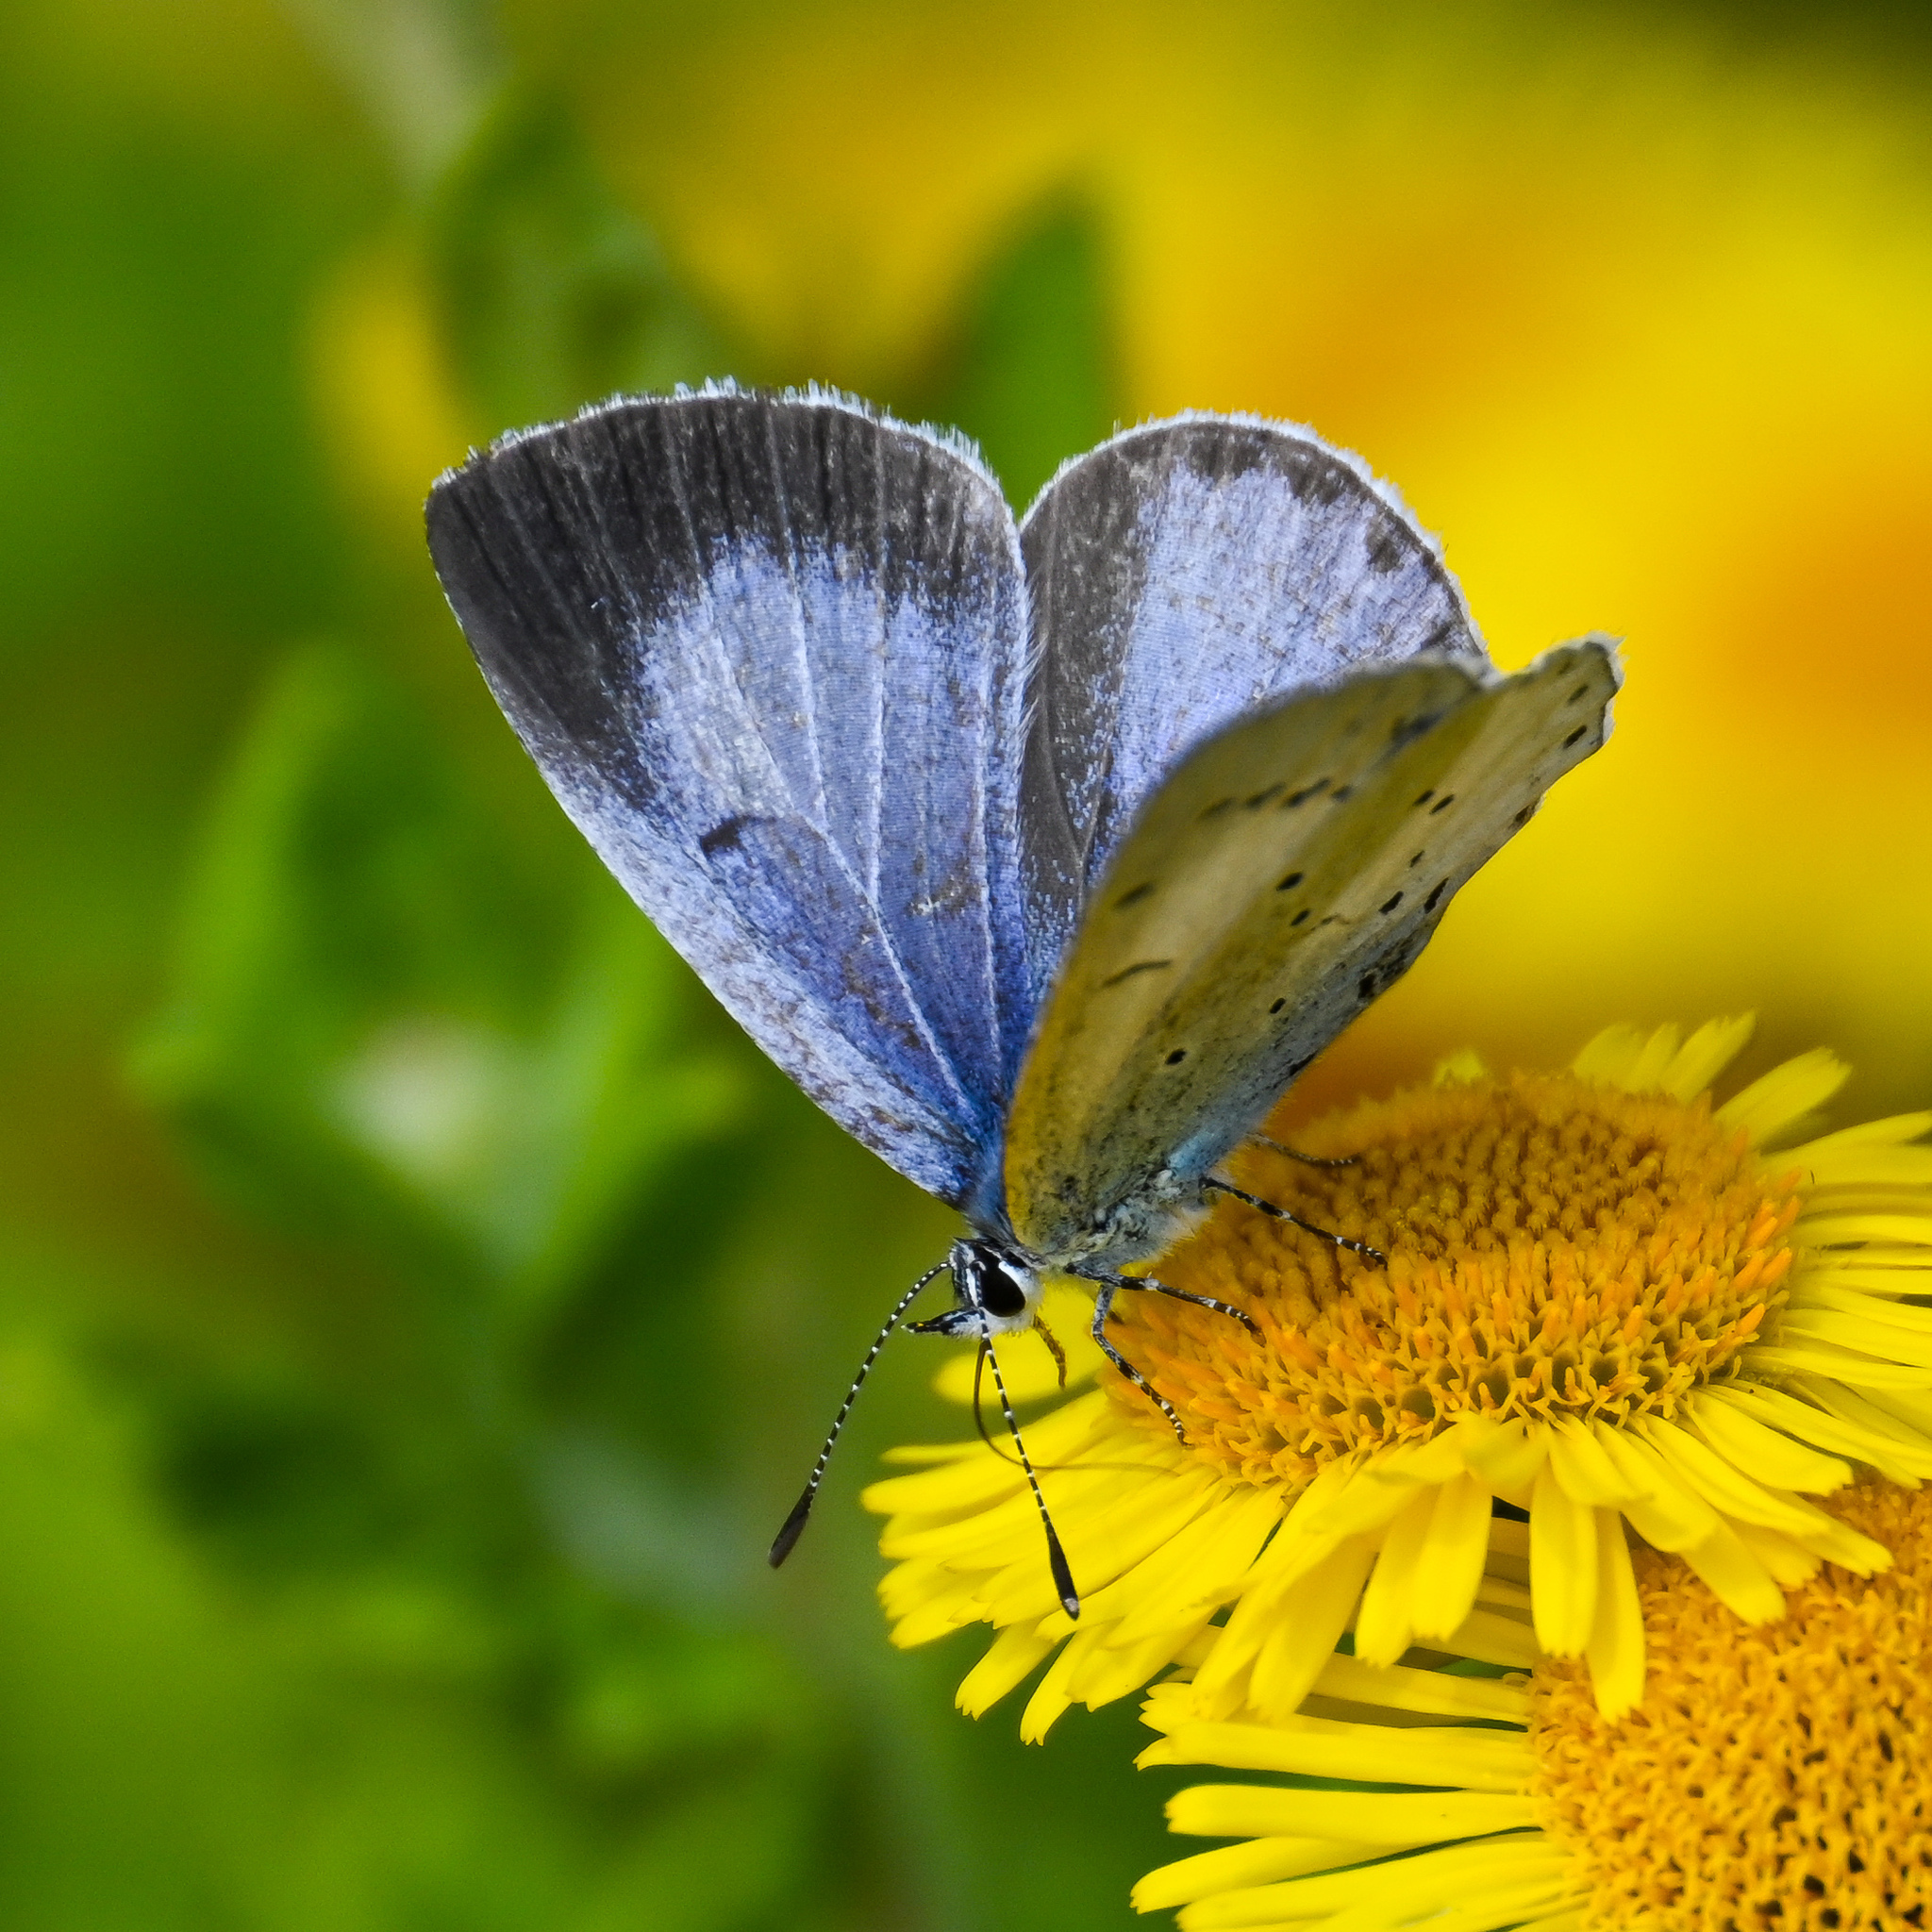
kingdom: Animalia
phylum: Arthropoda
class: Insecta
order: Lepidoptera
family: Lycaenidae
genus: Celastrina
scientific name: Celastrina argiolus
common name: Holly blue
